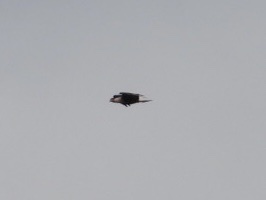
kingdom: Animalia
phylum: Chordata
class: Aves
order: Falconiformes
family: Falconidae
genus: Caracara
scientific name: Caracara plancus
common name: Southern caracara
